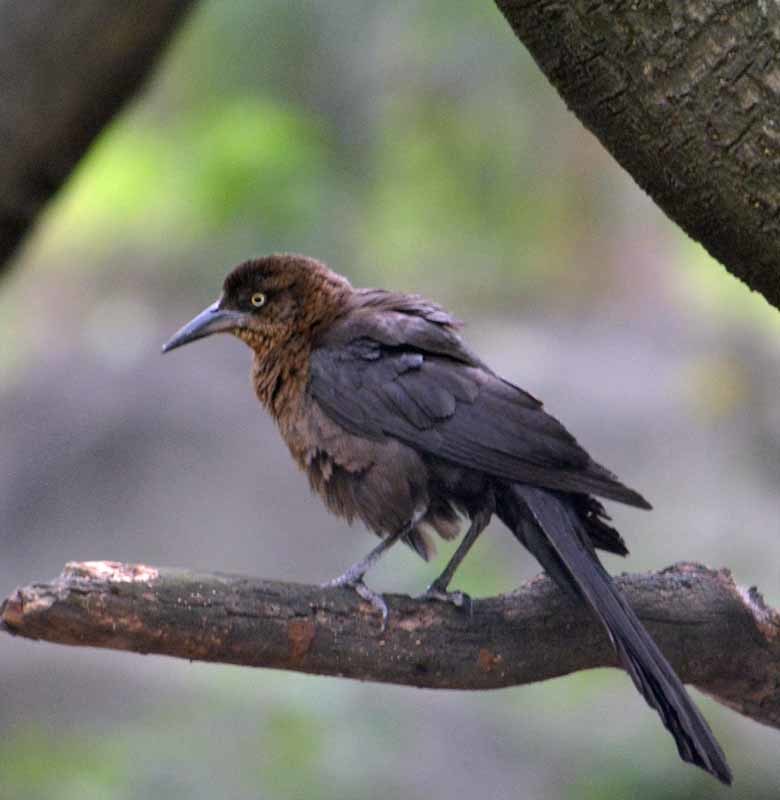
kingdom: Animalia
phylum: Chordata
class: Aves
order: Passeriformes
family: Icteridae
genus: Quiscalus
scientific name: Quiscalus mexicanus
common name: Great-tailed grackle
